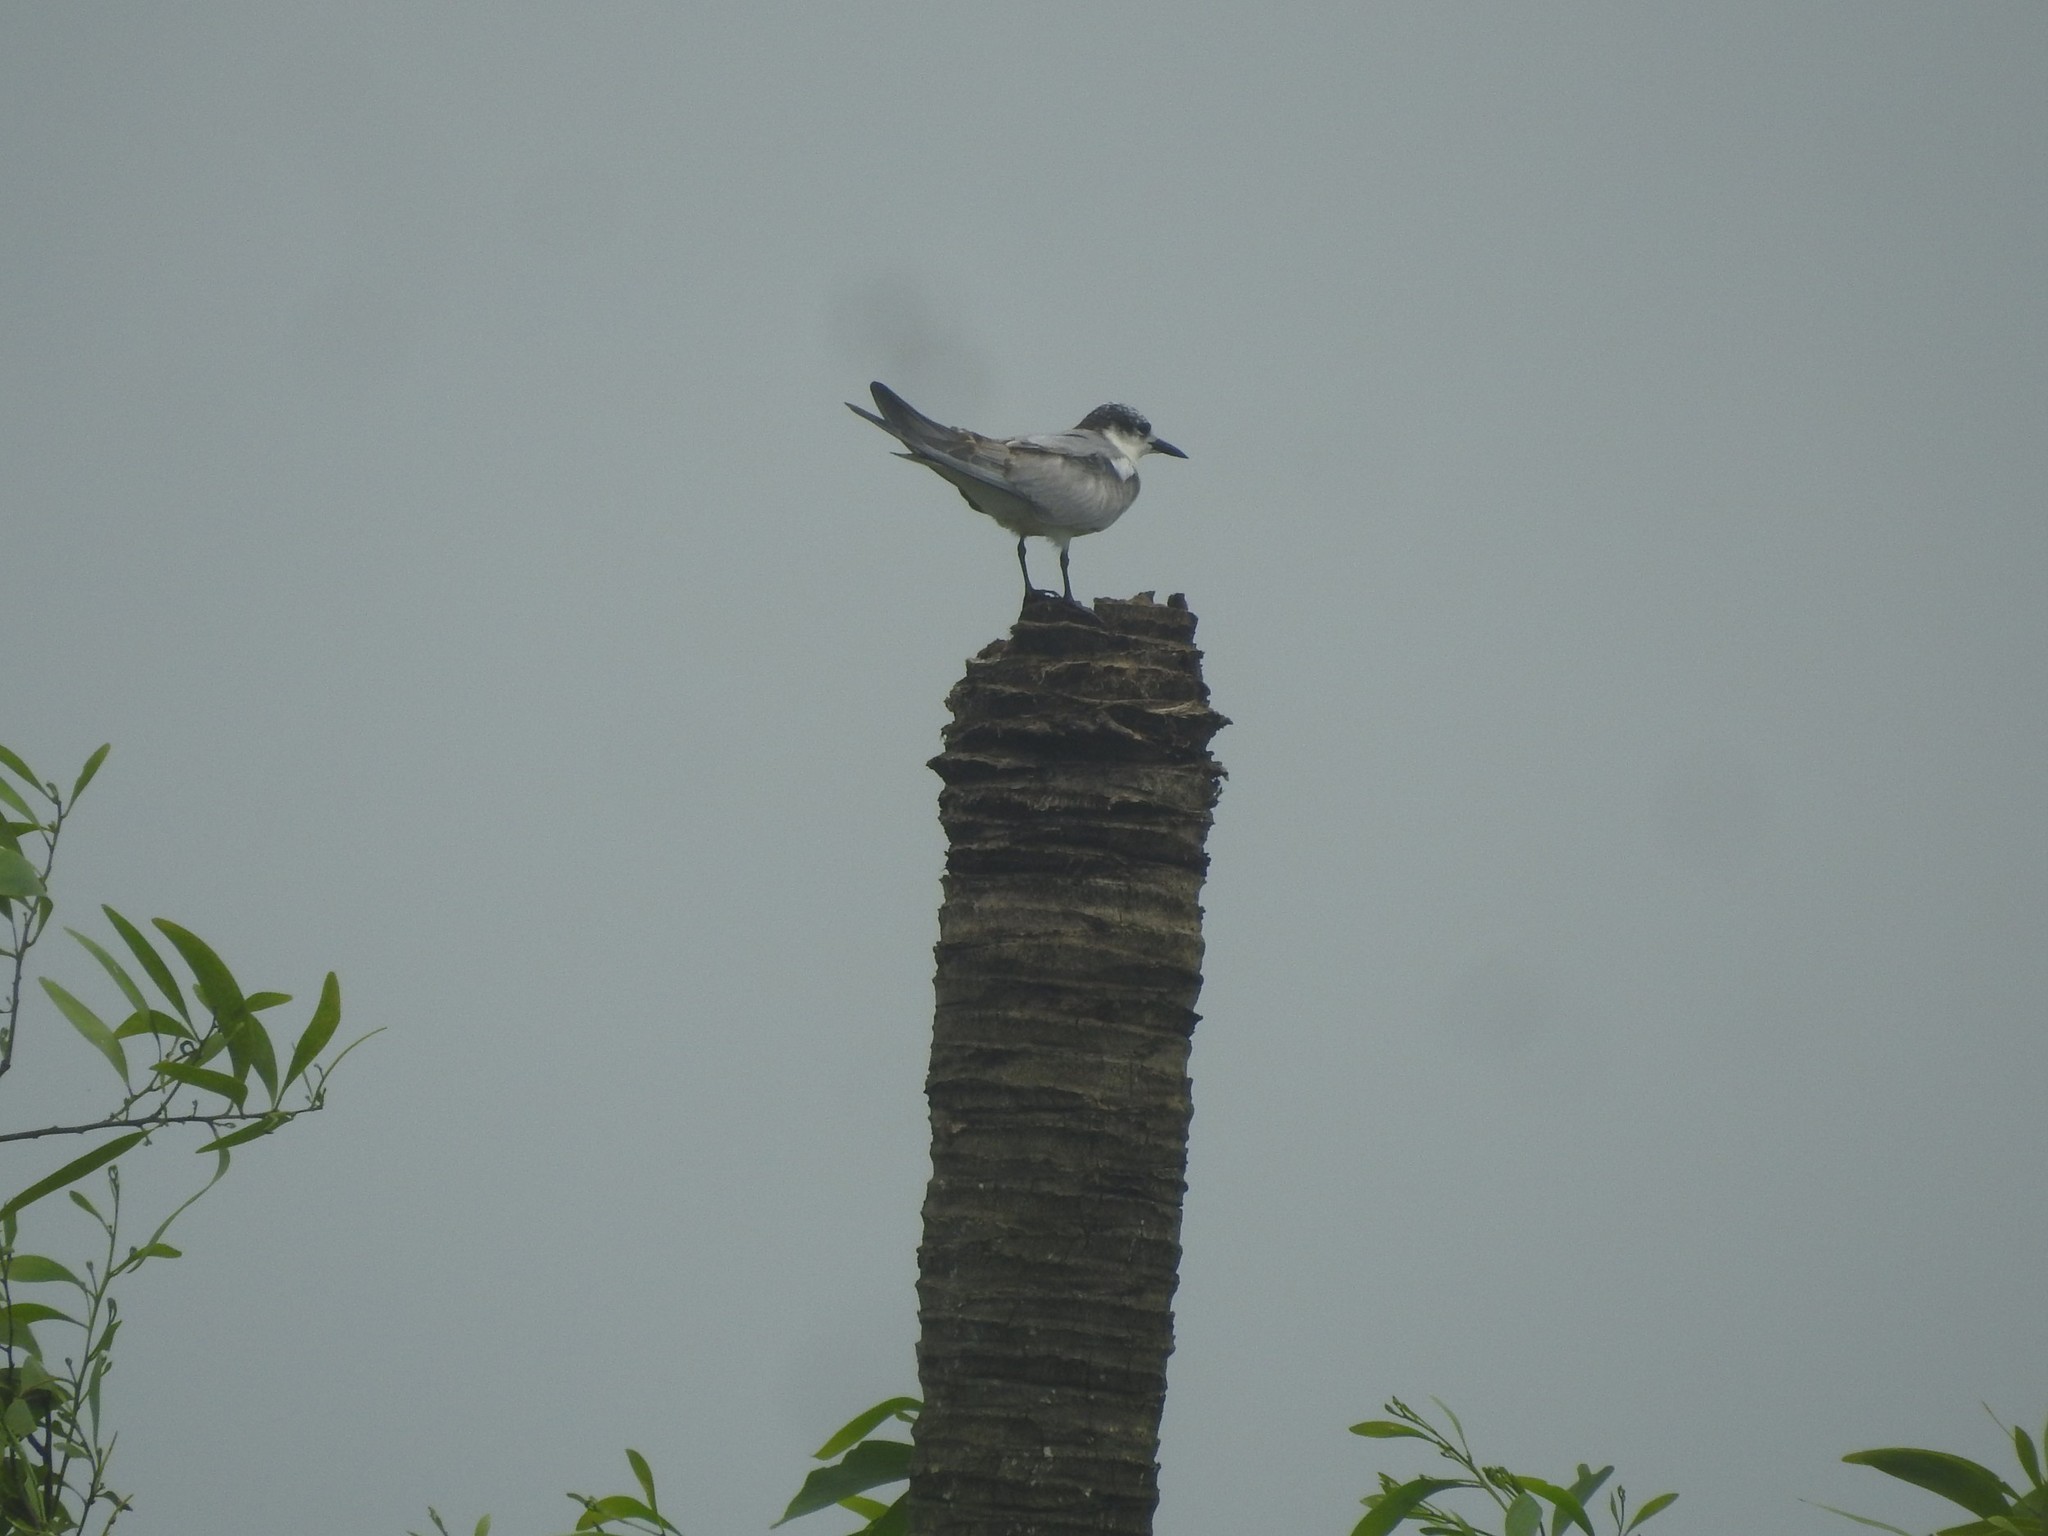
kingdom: Animalia
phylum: Chordata
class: Aves
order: Charadriiformes
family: Laridae
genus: Sterna
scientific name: Sterna hirundo
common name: Common tern
